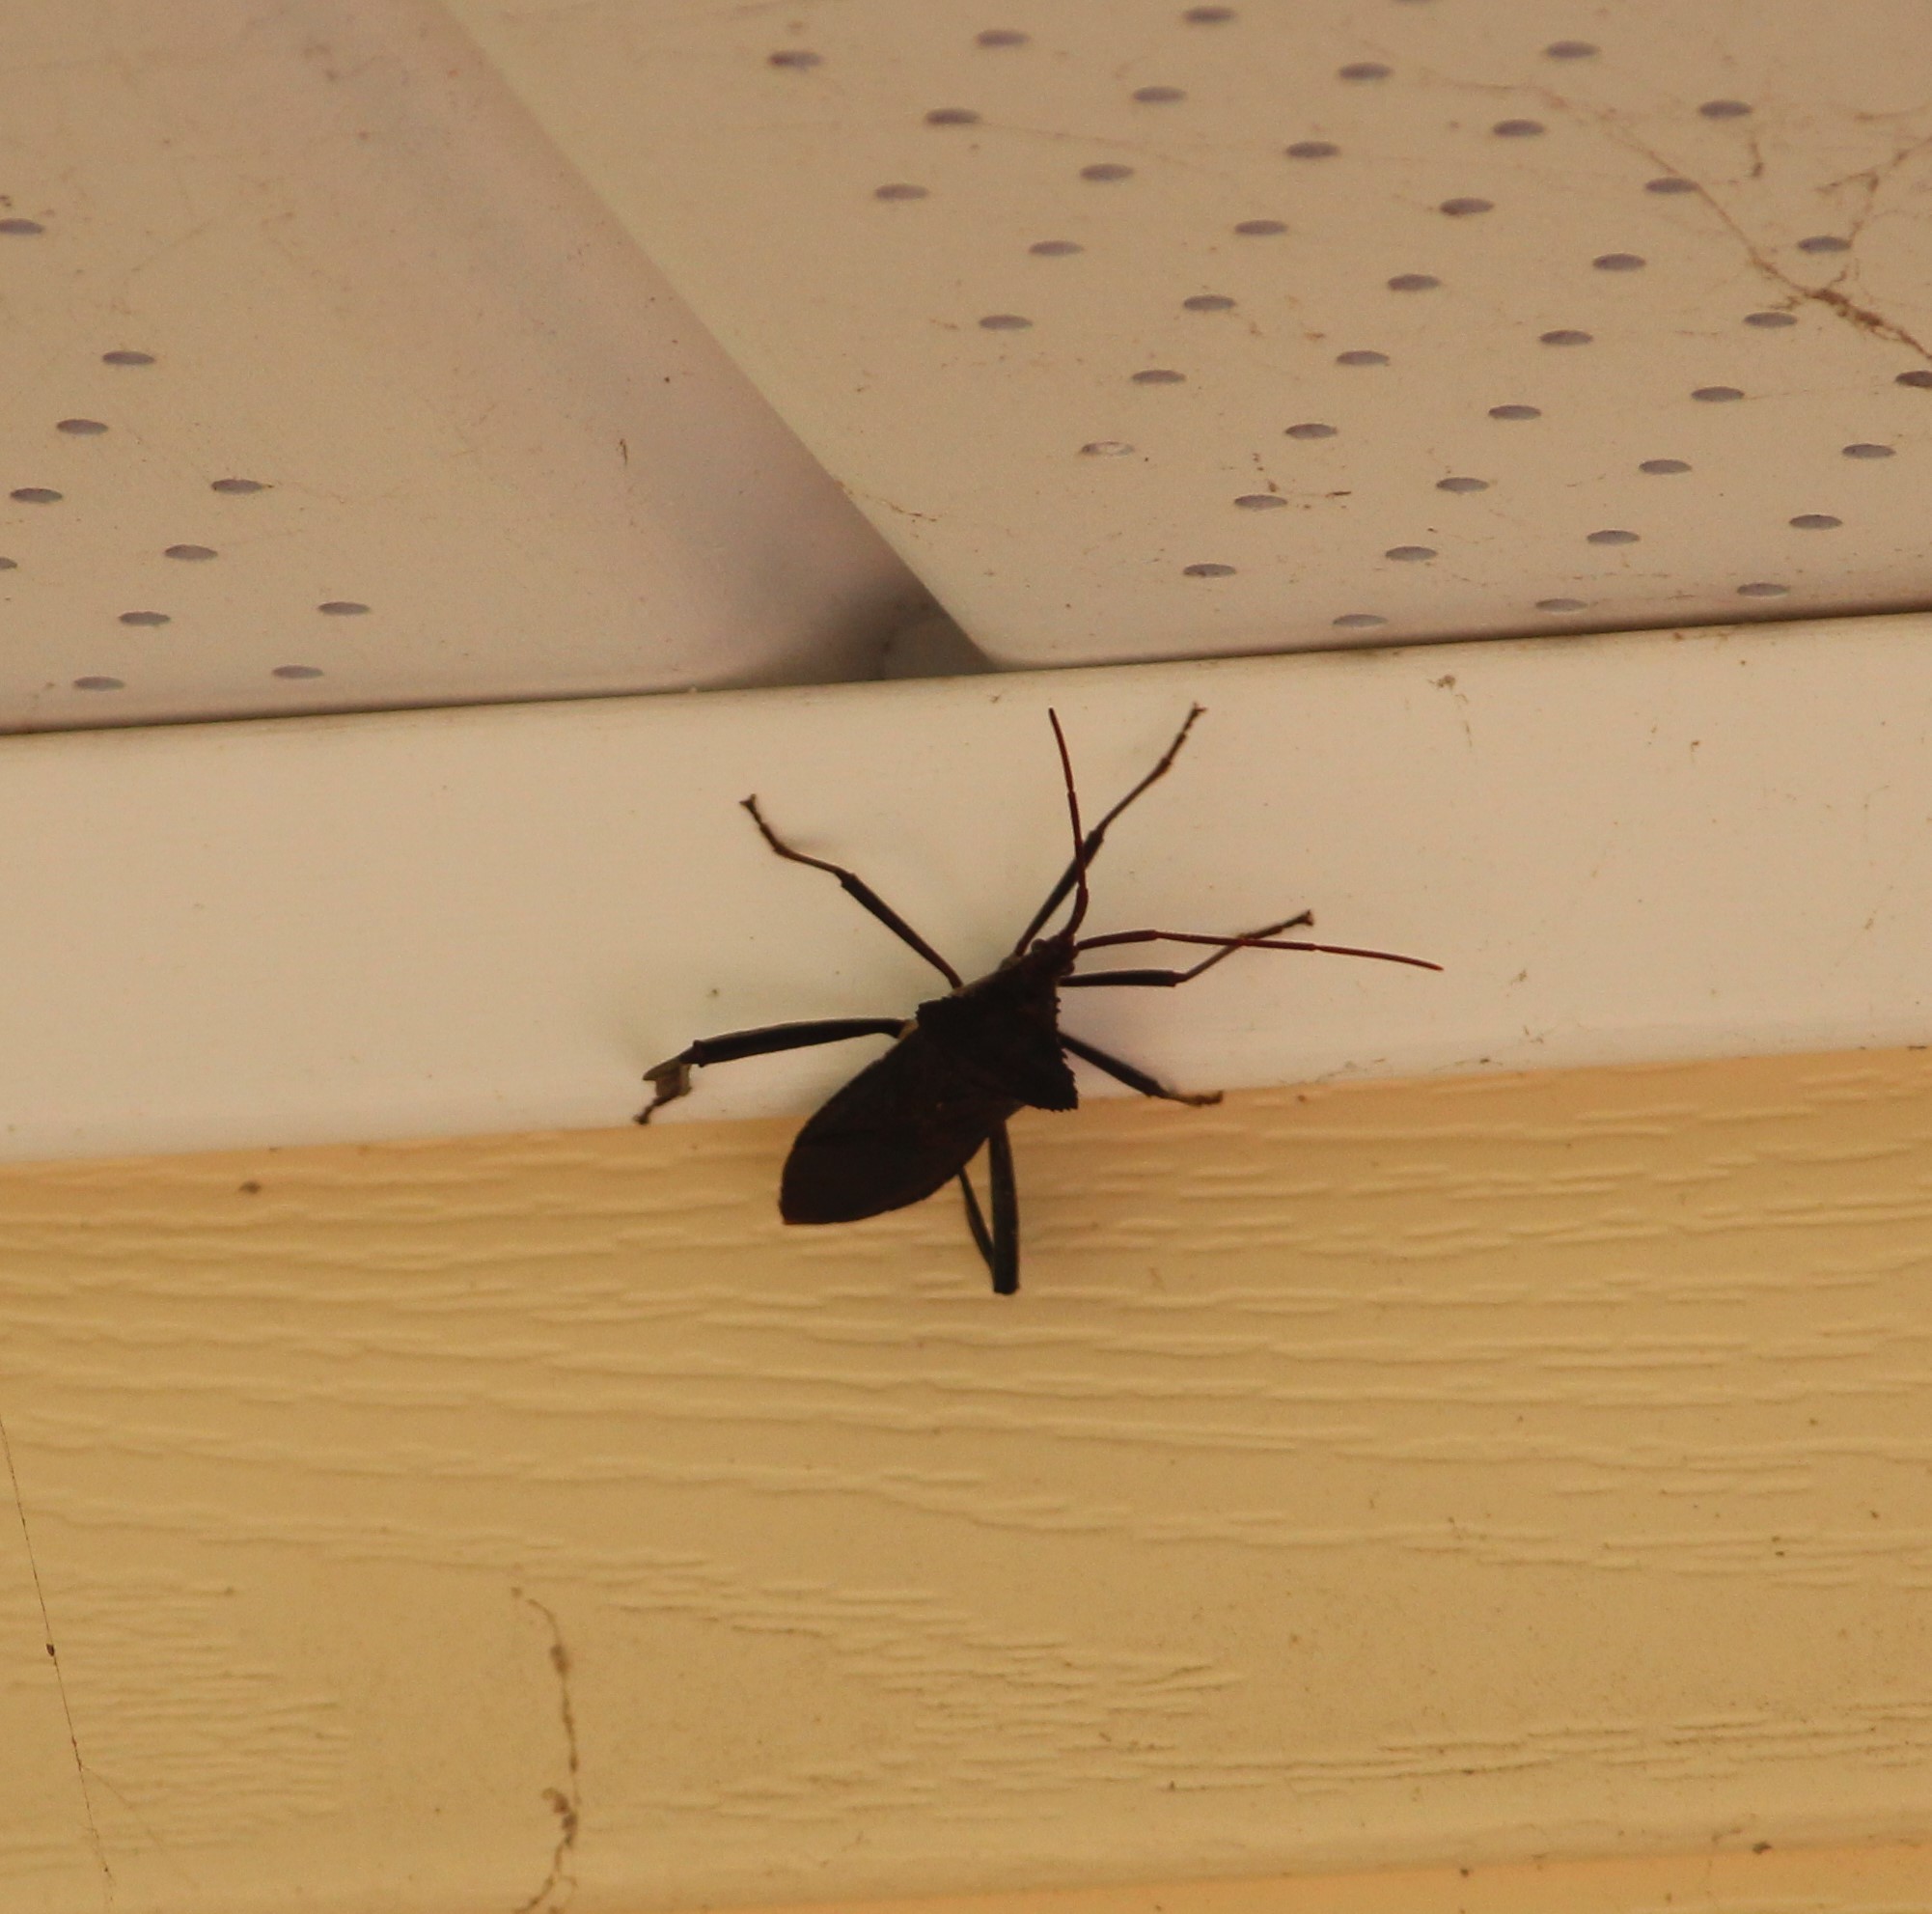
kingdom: Animalia
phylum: Arthropoda
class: Insecta
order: Hemiptera
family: Coreidae
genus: Acanthocephala
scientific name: Acanthocephala declivis
